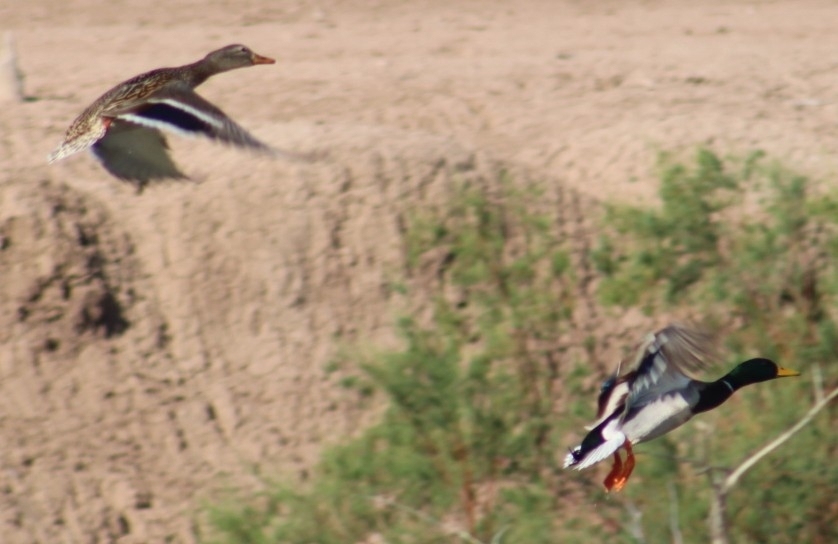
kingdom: Animalia
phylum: Chordata
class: Aves
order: Anseriformes
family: Anatidae
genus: Anas
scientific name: Anas platyrhynchos
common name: Mallard
